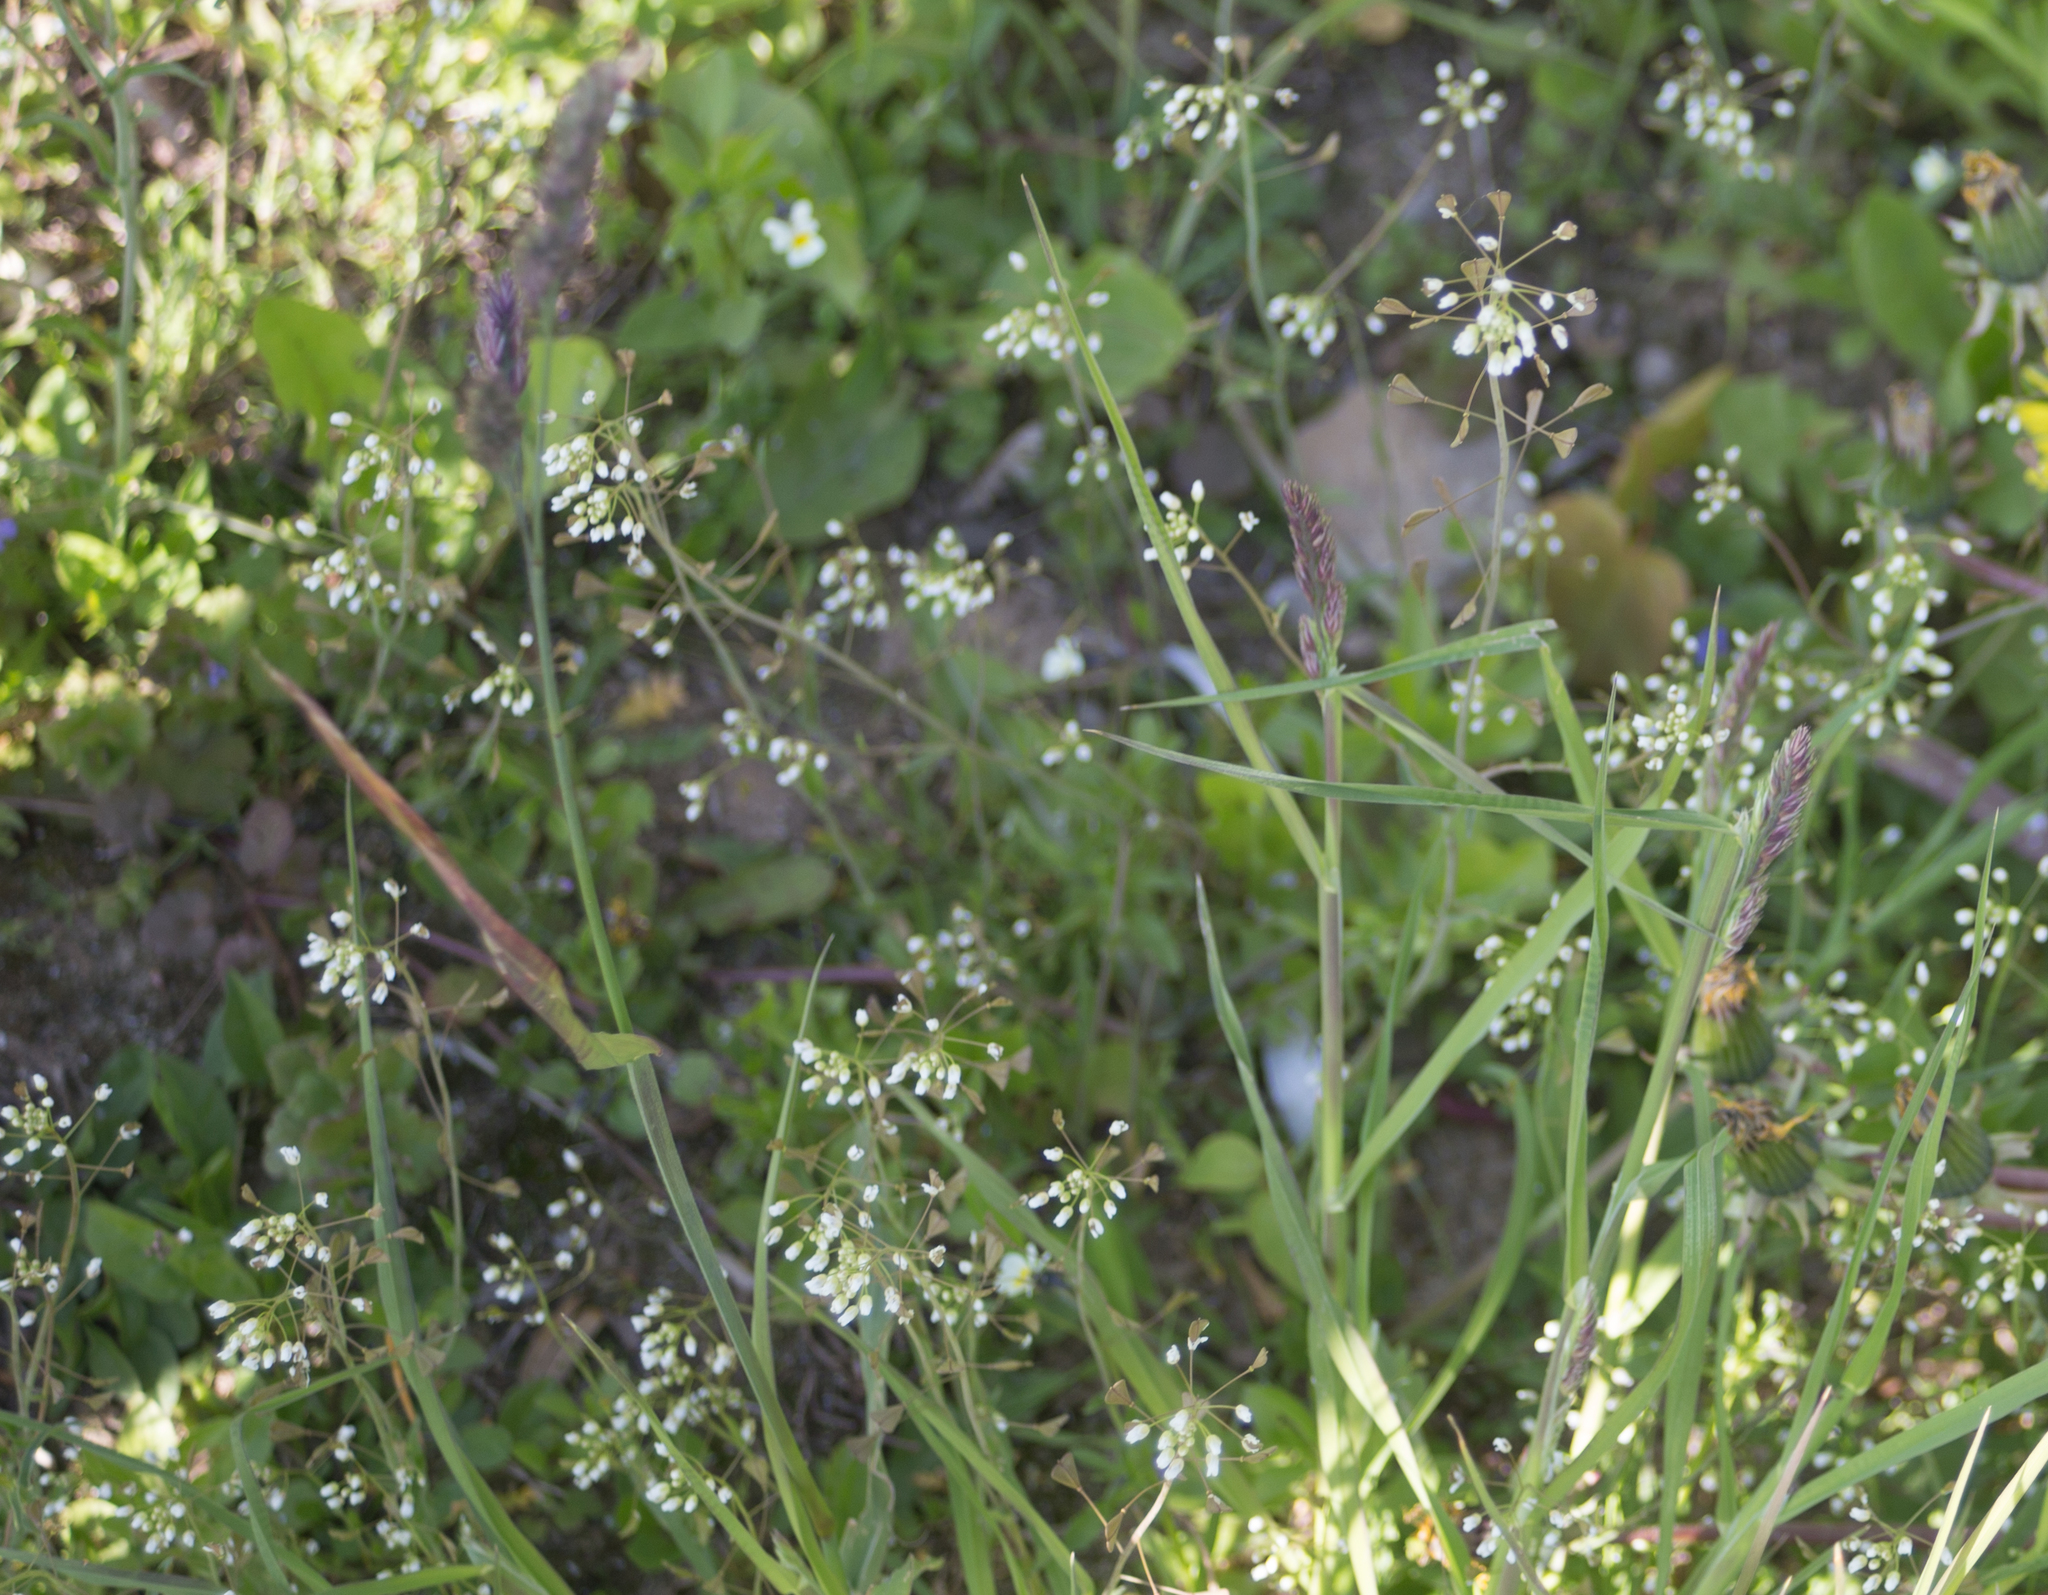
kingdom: Plantae
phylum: Tracheophyta
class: Magnoliopsida
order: Brassicales
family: Brassicaceae
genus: Capsella
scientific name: Capsella bursa-pastoris
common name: Shepherd's purse
